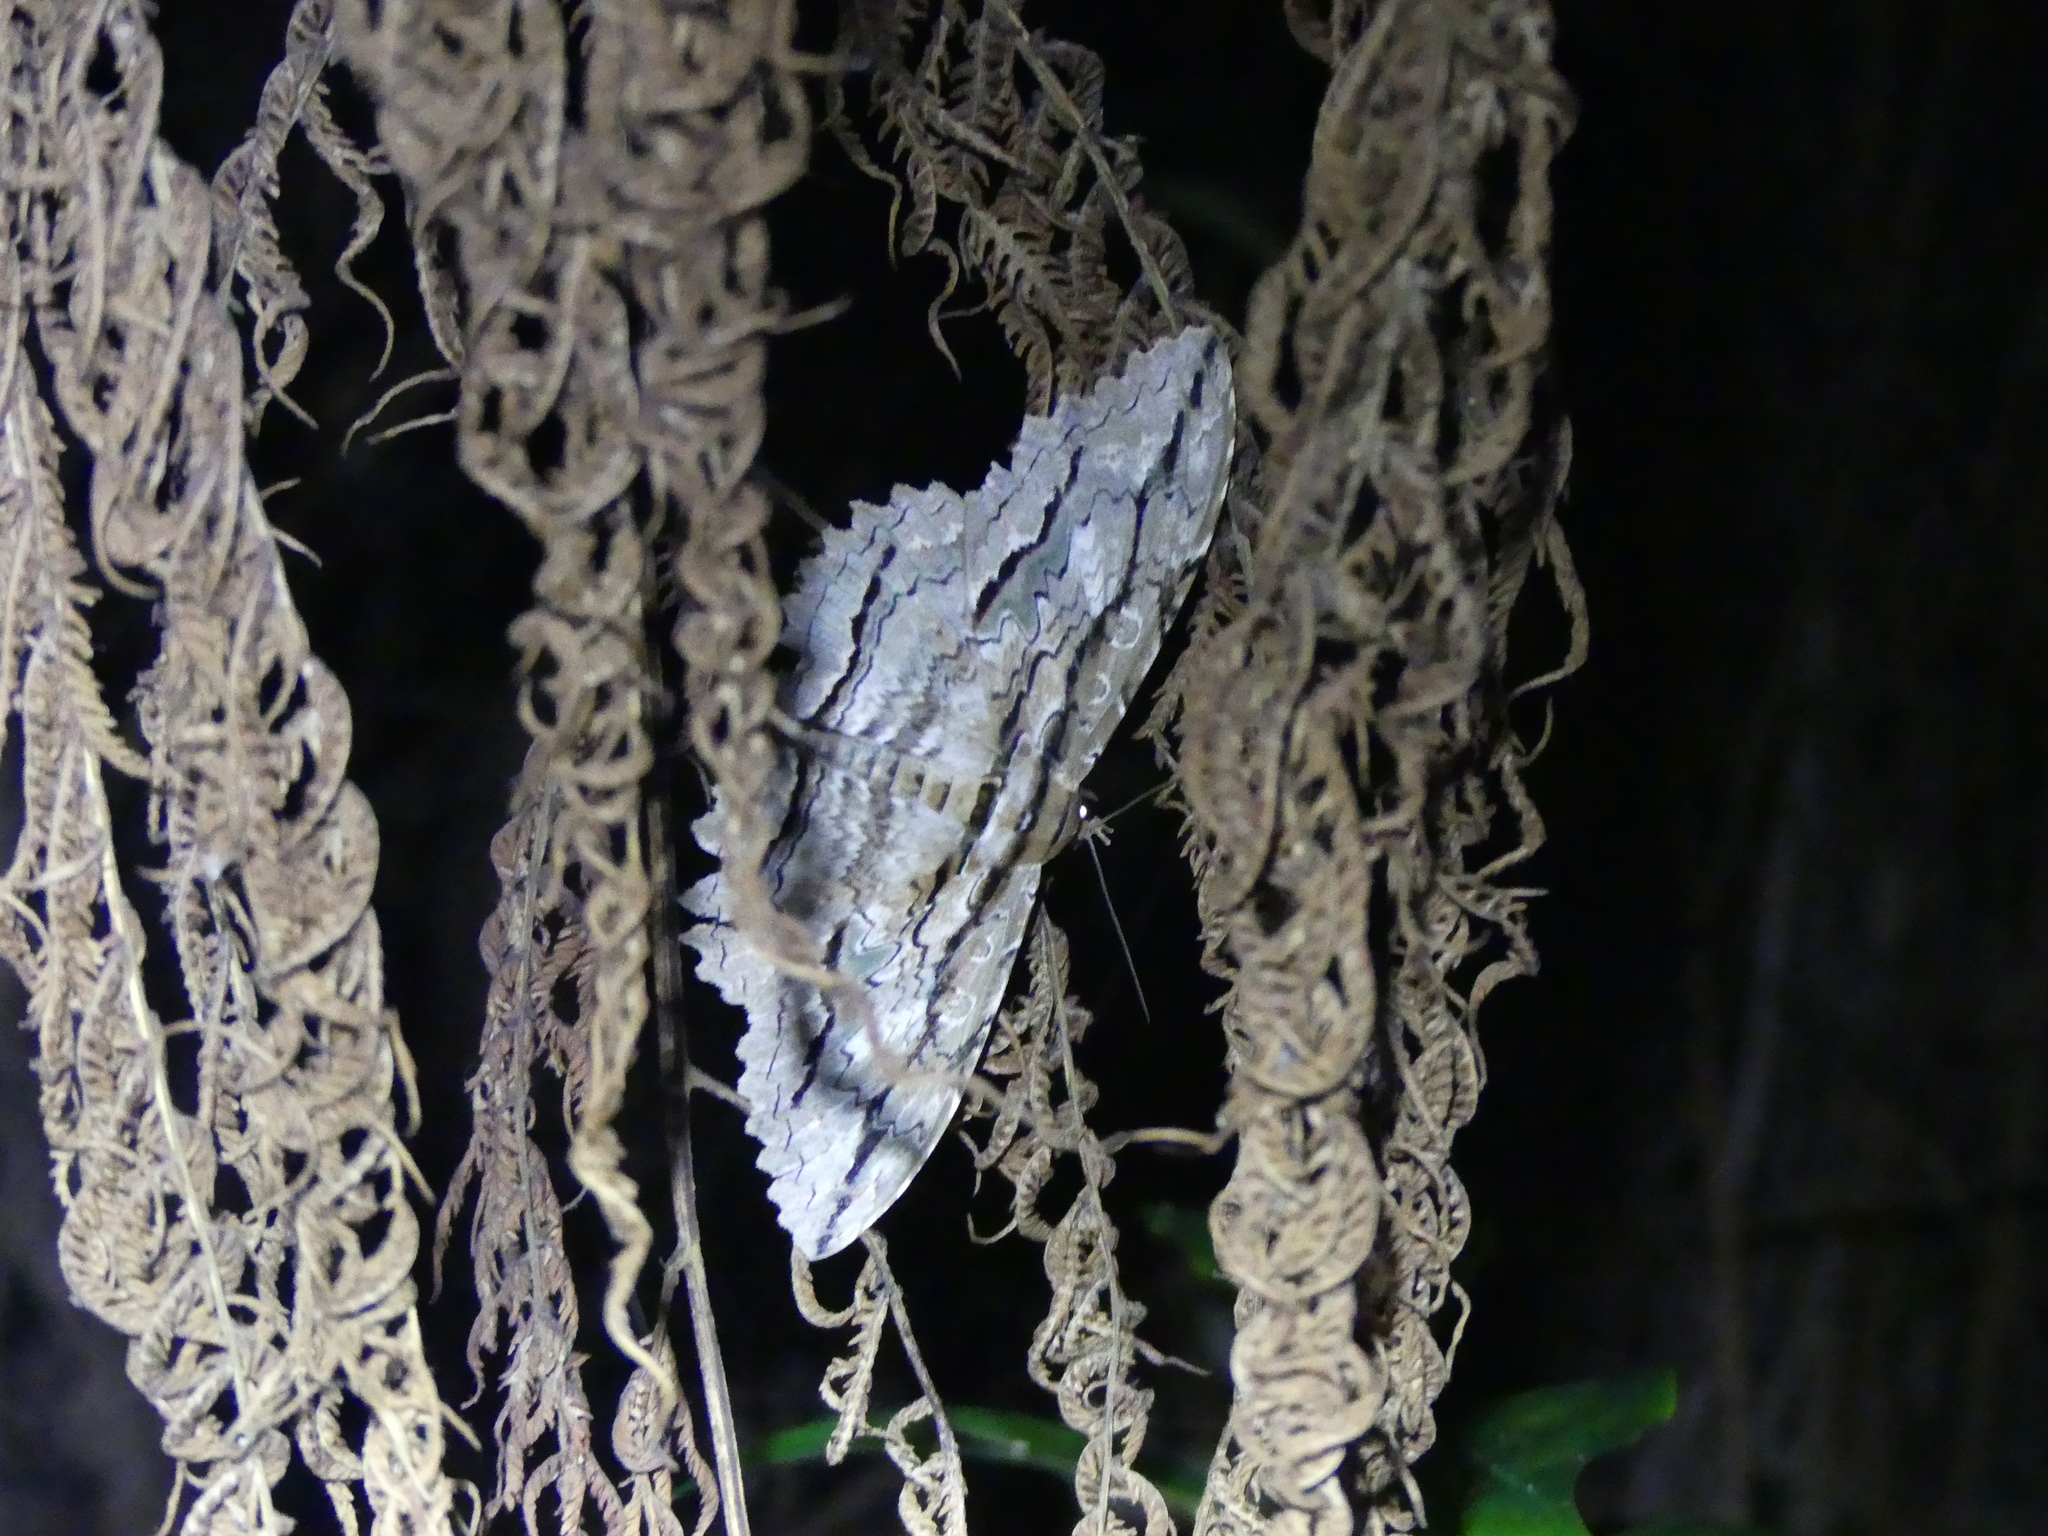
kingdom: Animalia
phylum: Arthropoda
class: Insecta
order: Lepidoptera
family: Erebidae
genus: Thysania
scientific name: Thysania zenobia
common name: Owl moth
